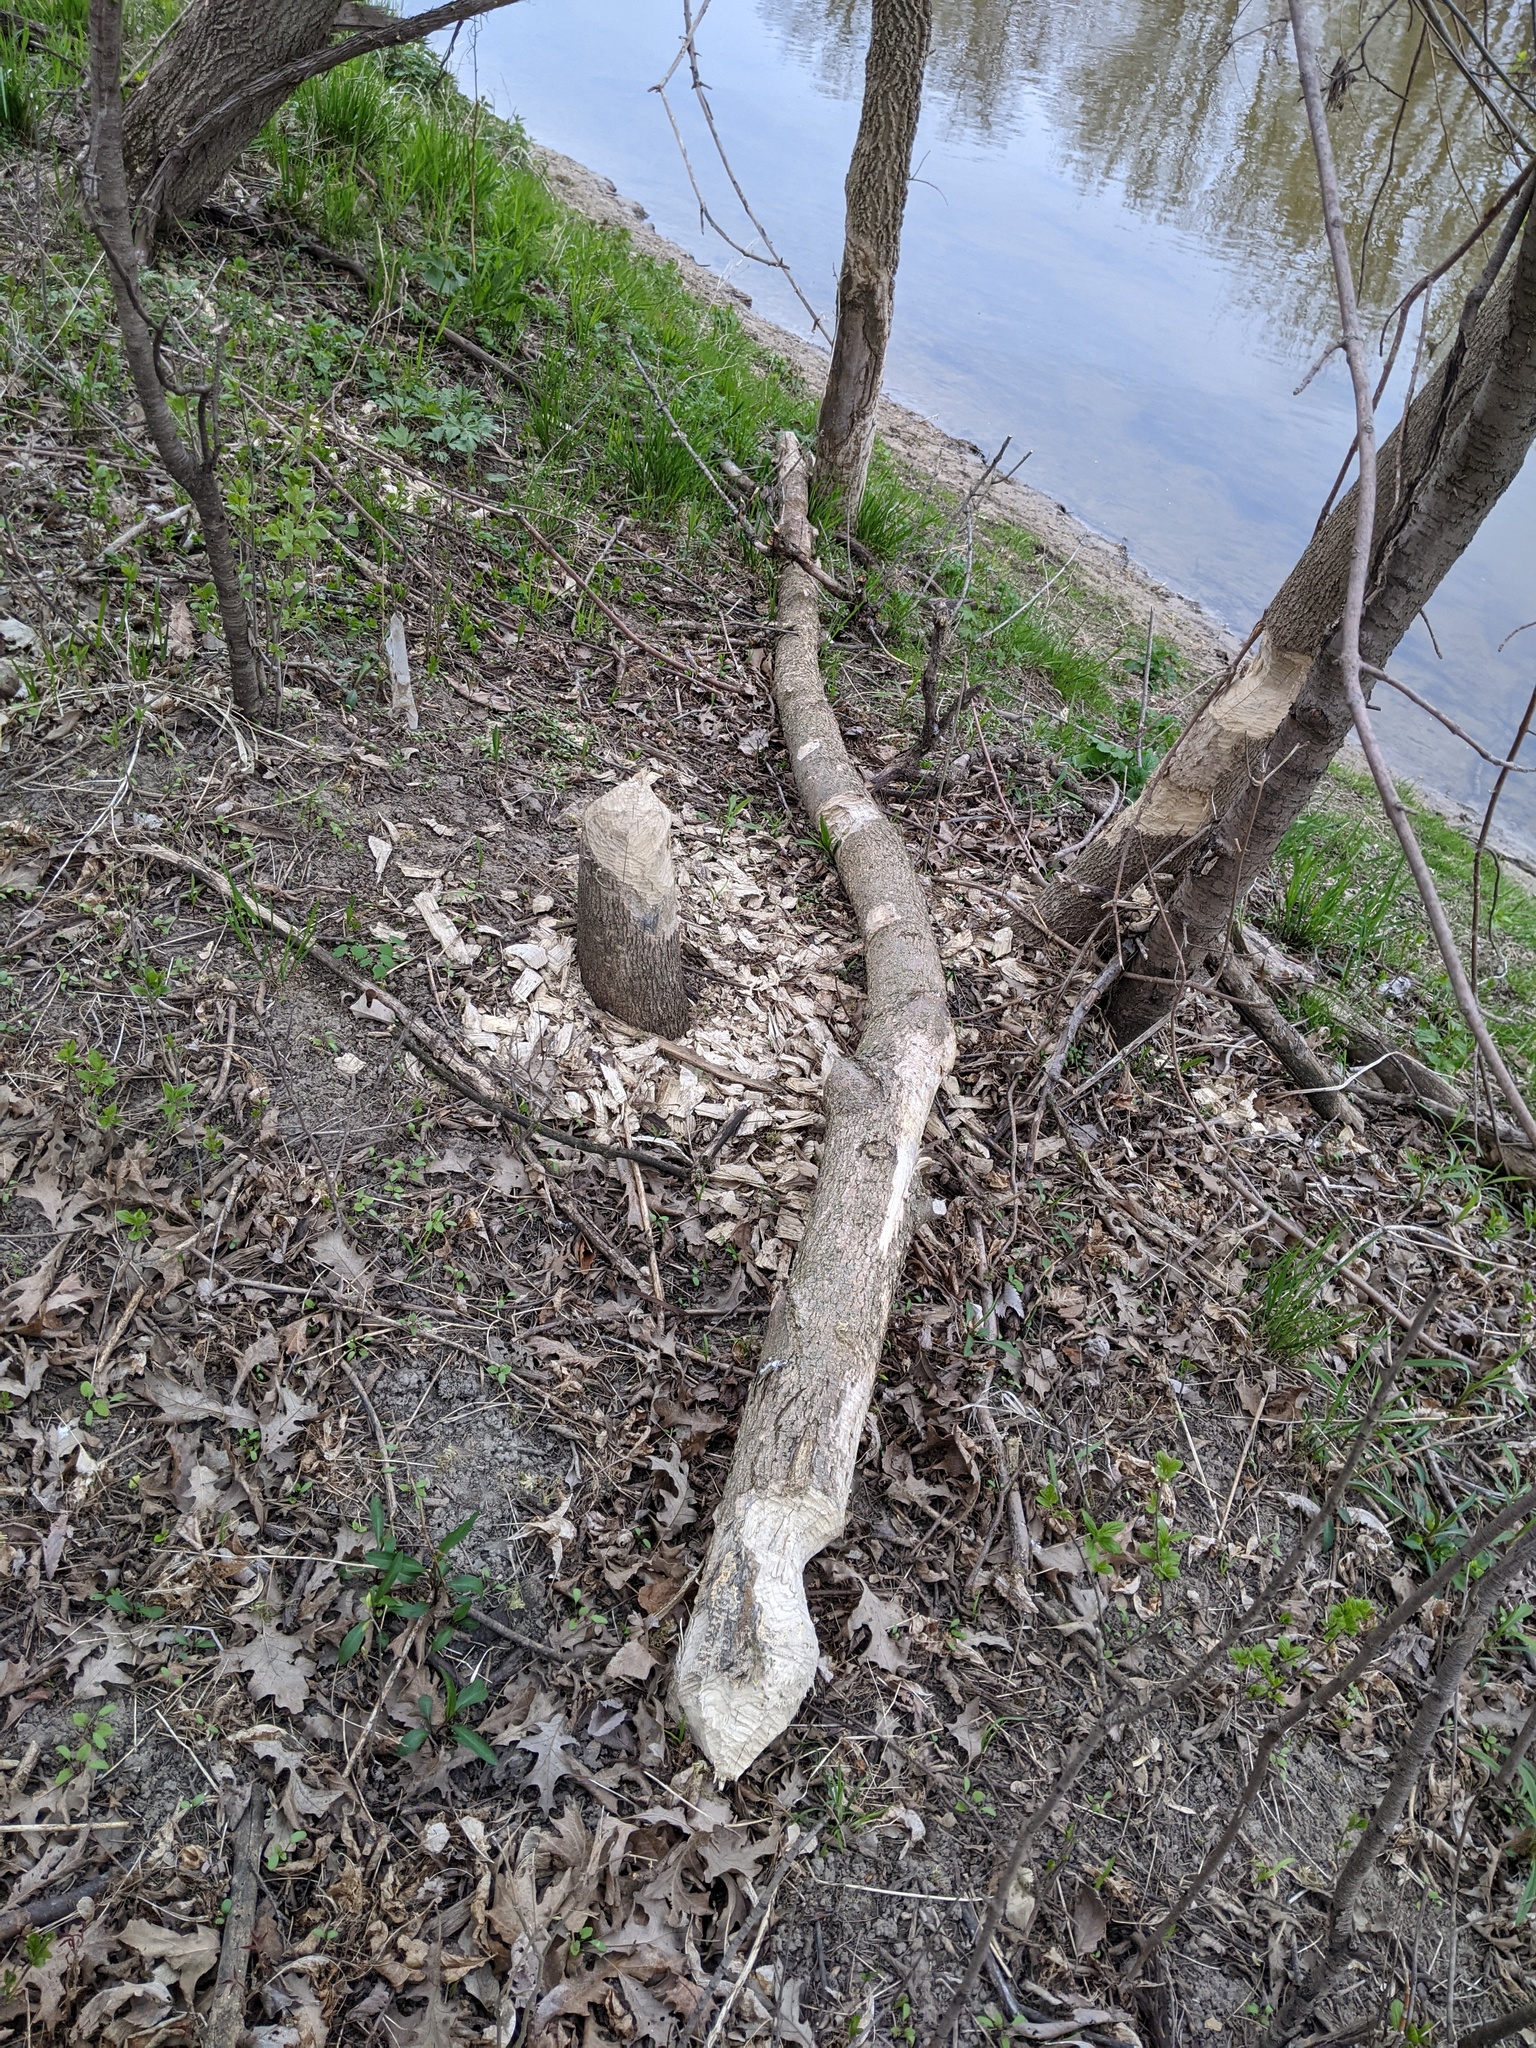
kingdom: Animalia
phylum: Chordata
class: Mammalia
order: Rodentia
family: Castoridae
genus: Castor
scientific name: Castor canadensis
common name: American beaver
